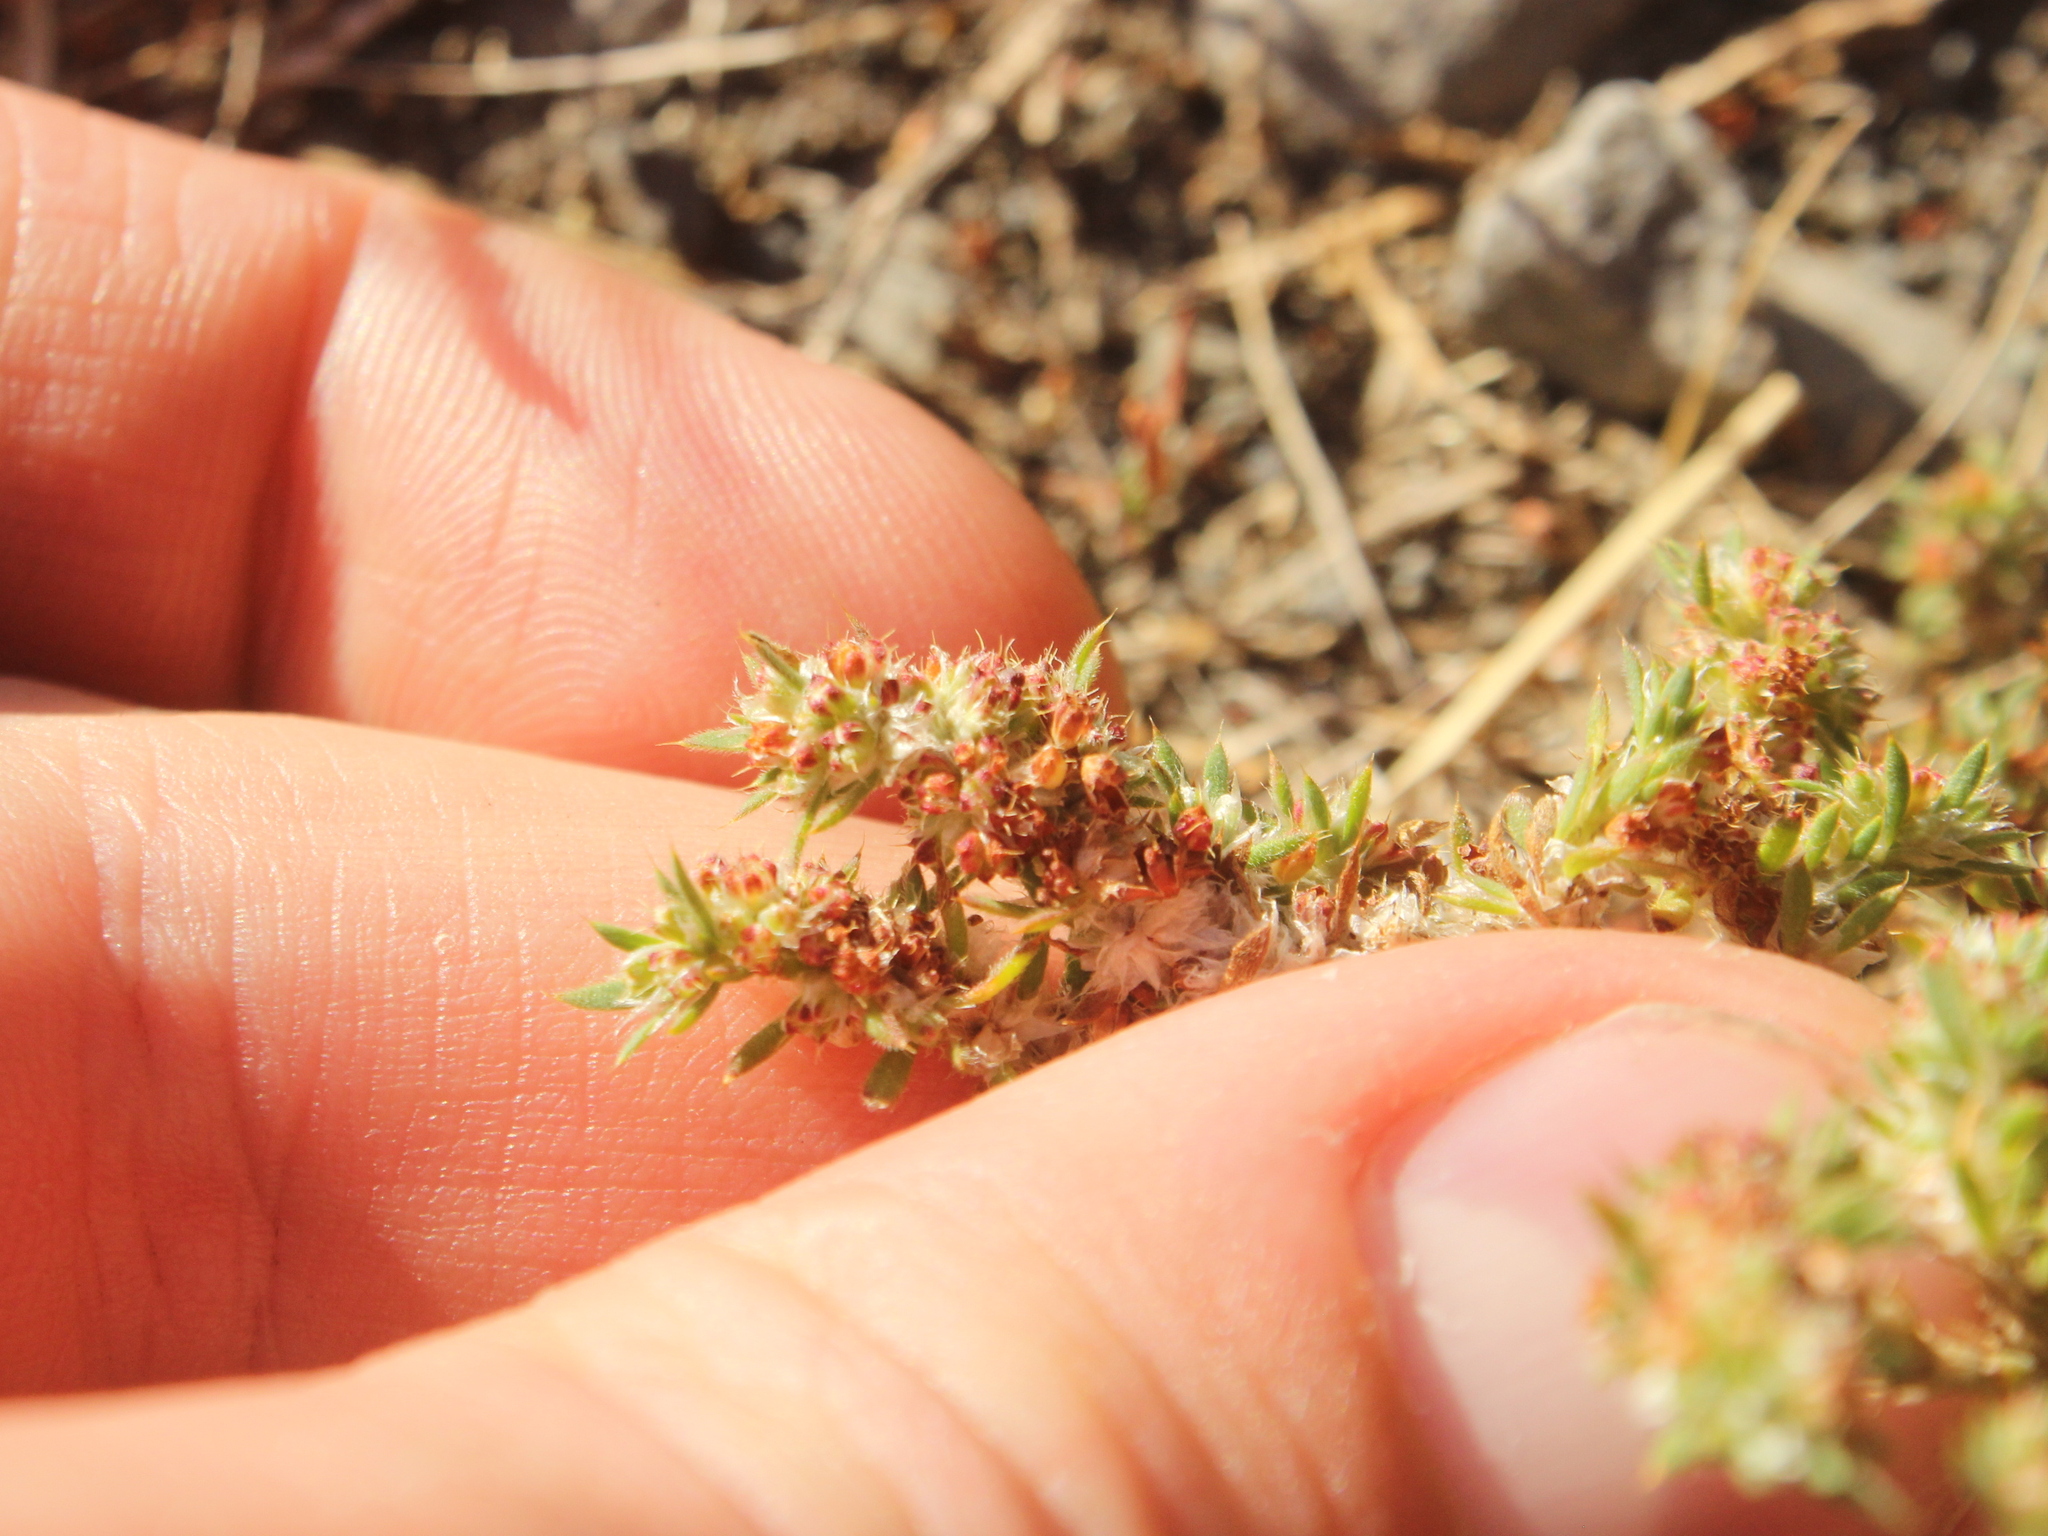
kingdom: Plantae
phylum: Tracheophyta
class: Magnoliopsida
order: Caryophyllales
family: Caryophyllaceae
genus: Paronychia
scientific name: Paronychia brasiliana
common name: Brazilian whitlow
